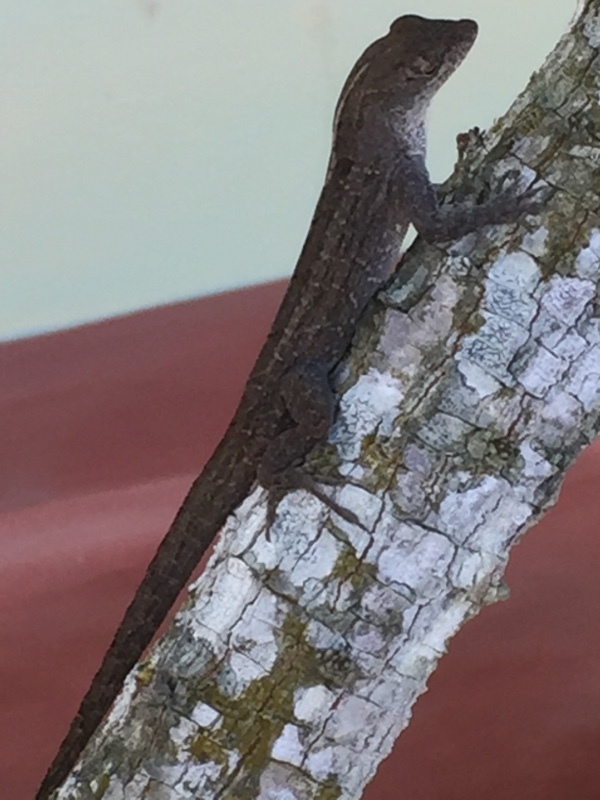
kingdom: Animalia
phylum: Chordata
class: Squamata
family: Dactyloidae
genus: Anolis
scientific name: Anolis sagrei
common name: Brown anole
